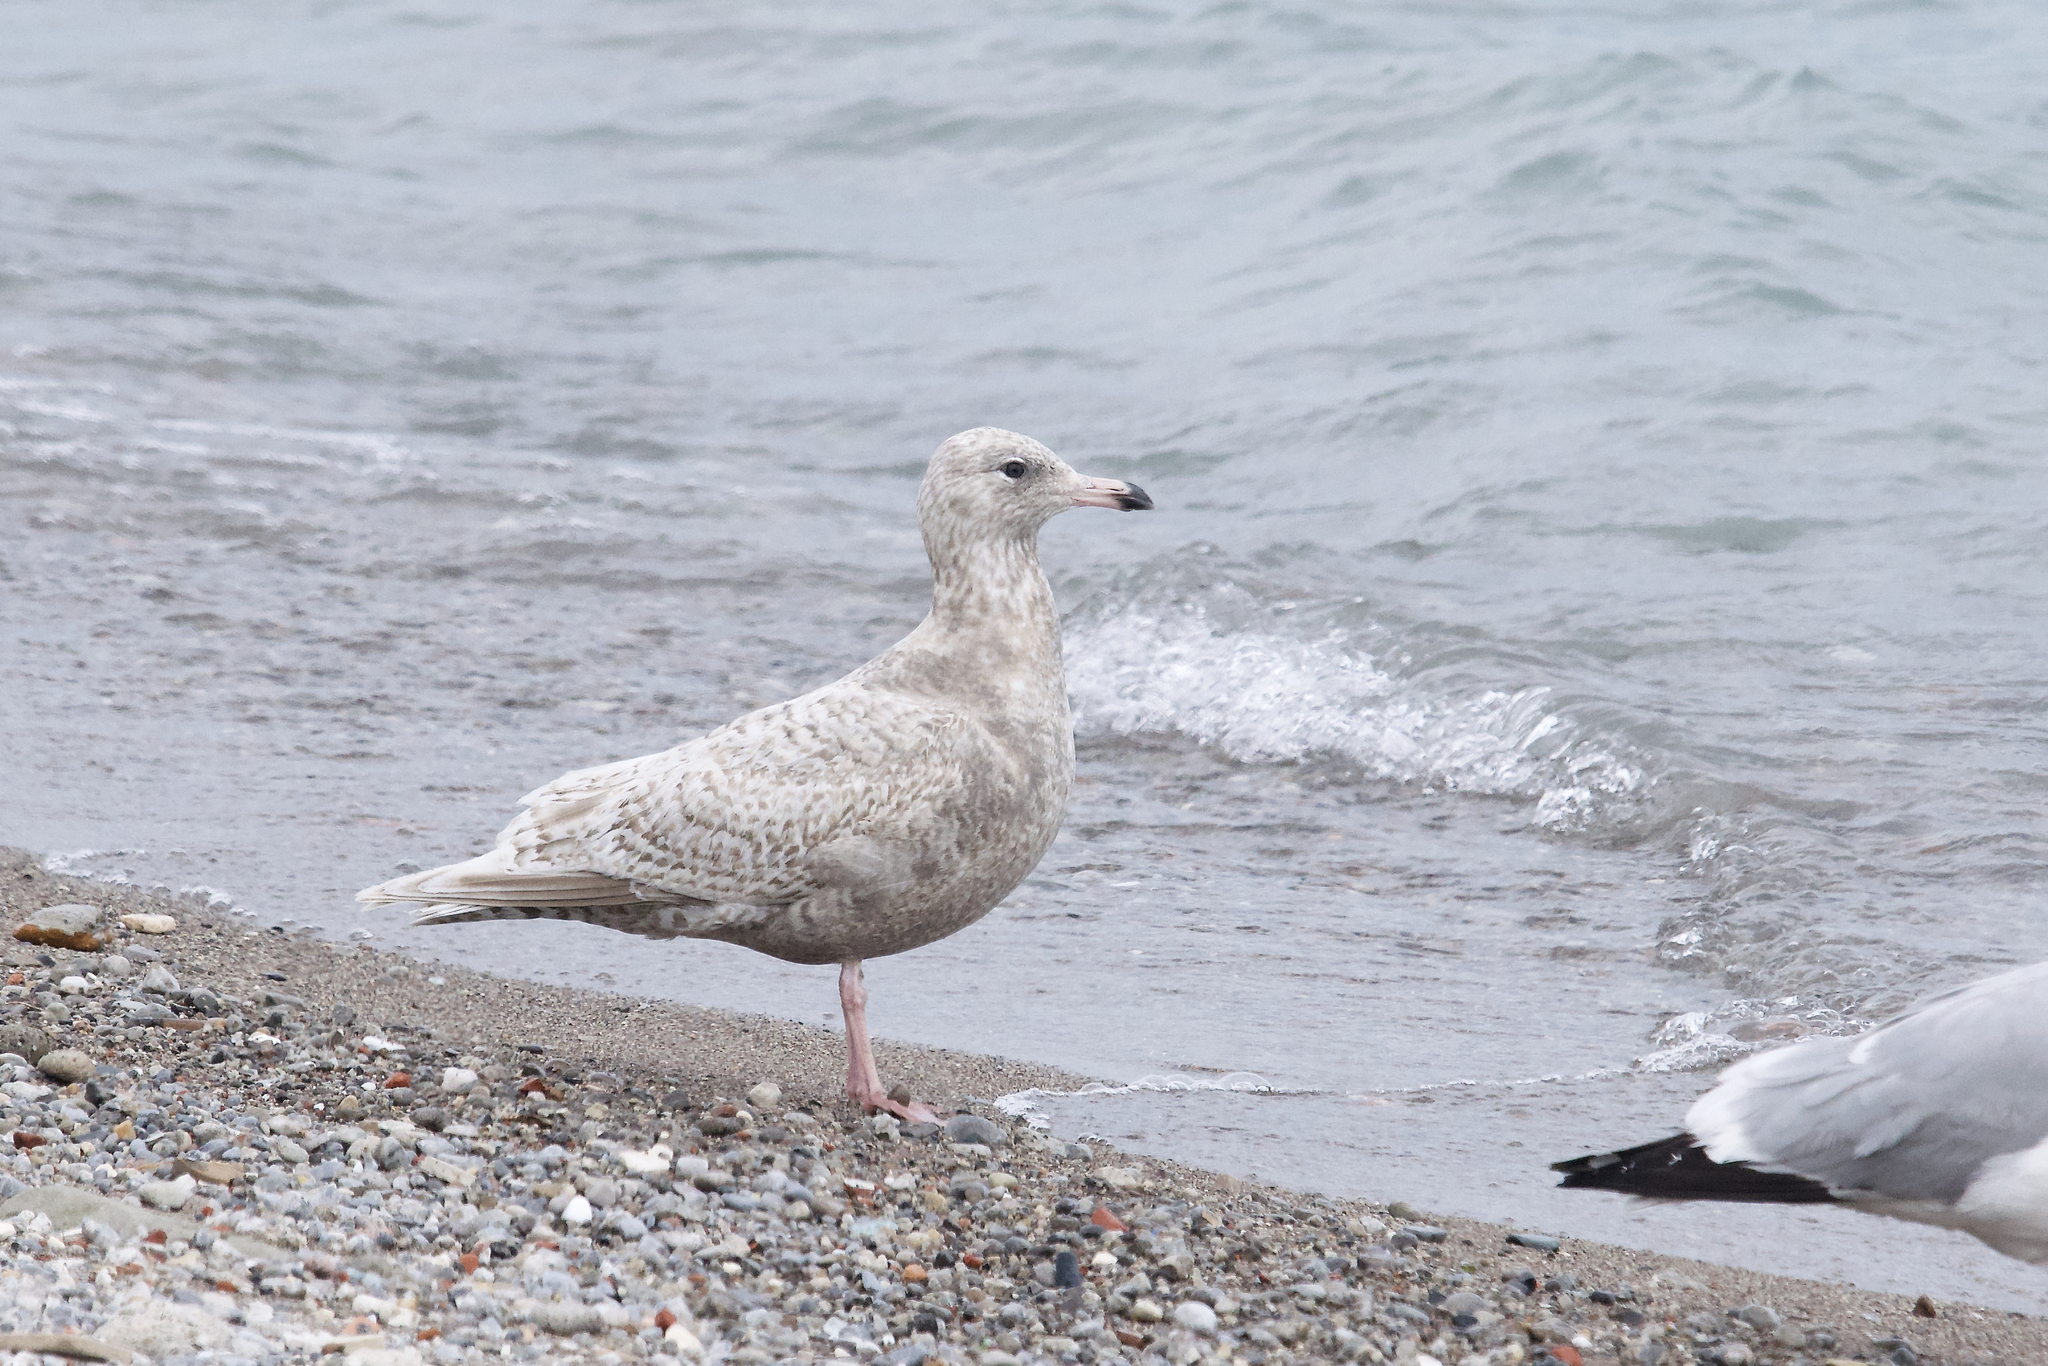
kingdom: Animalia
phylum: Chordata
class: Aves
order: Charadriiformes
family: Laridae
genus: Larus
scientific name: Larus
